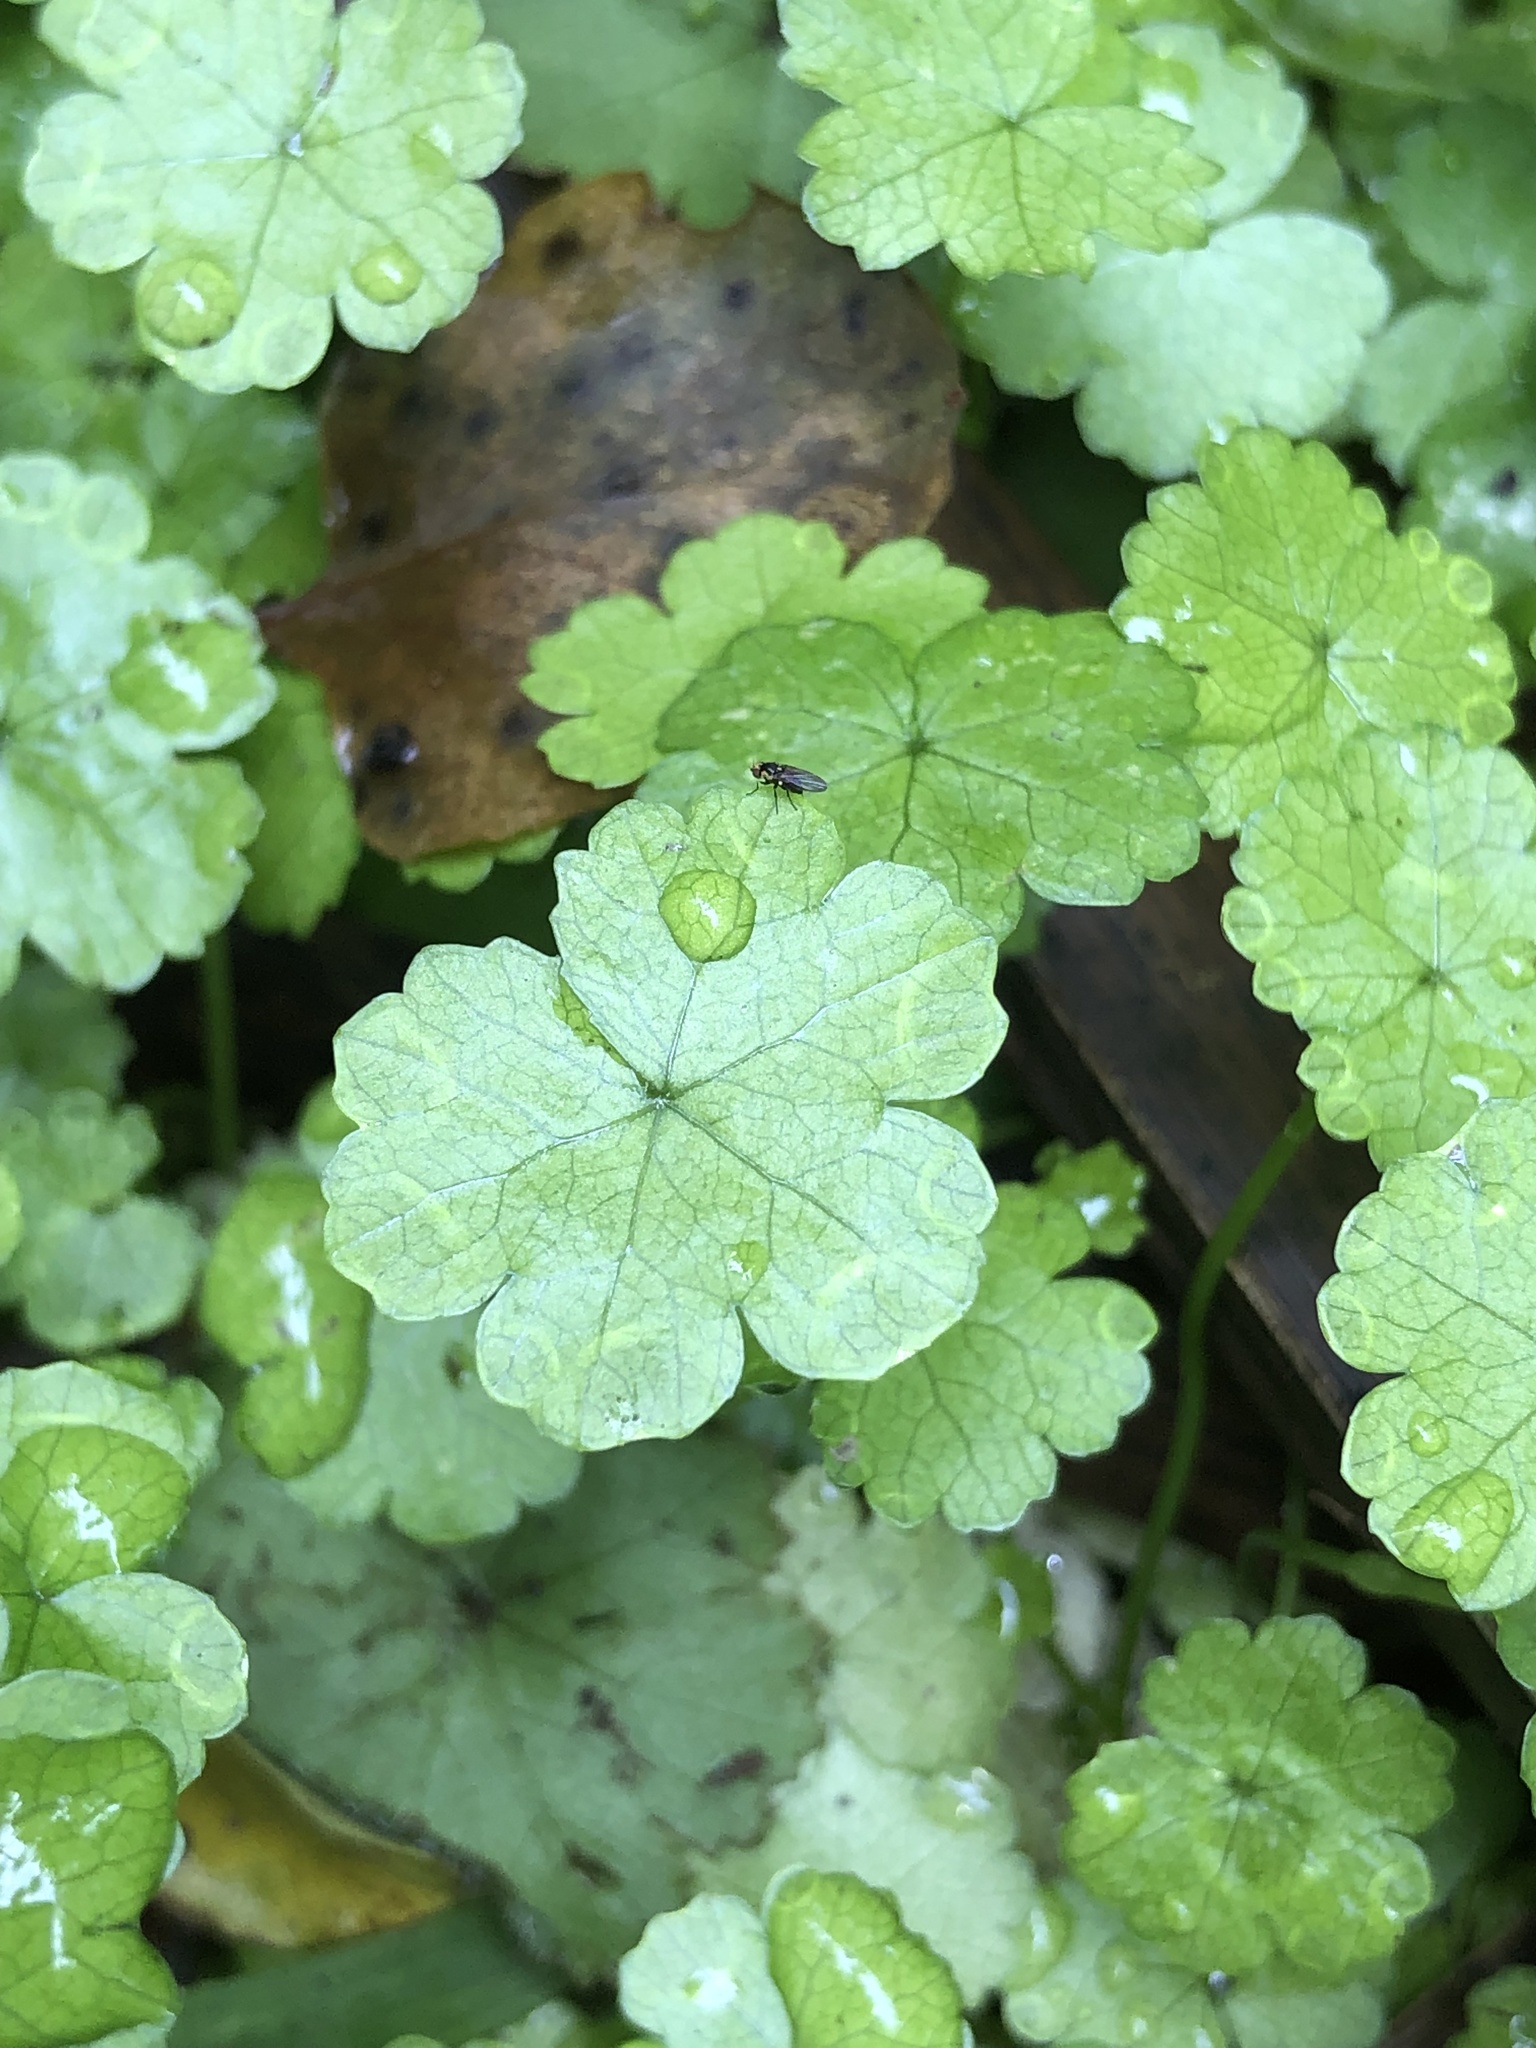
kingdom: Plantae
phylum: Tracheophyta
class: Magnoliopsida
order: Apiales
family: Araliaceae
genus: Hydrocotyle
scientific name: Hydrocotyle heteromeria
